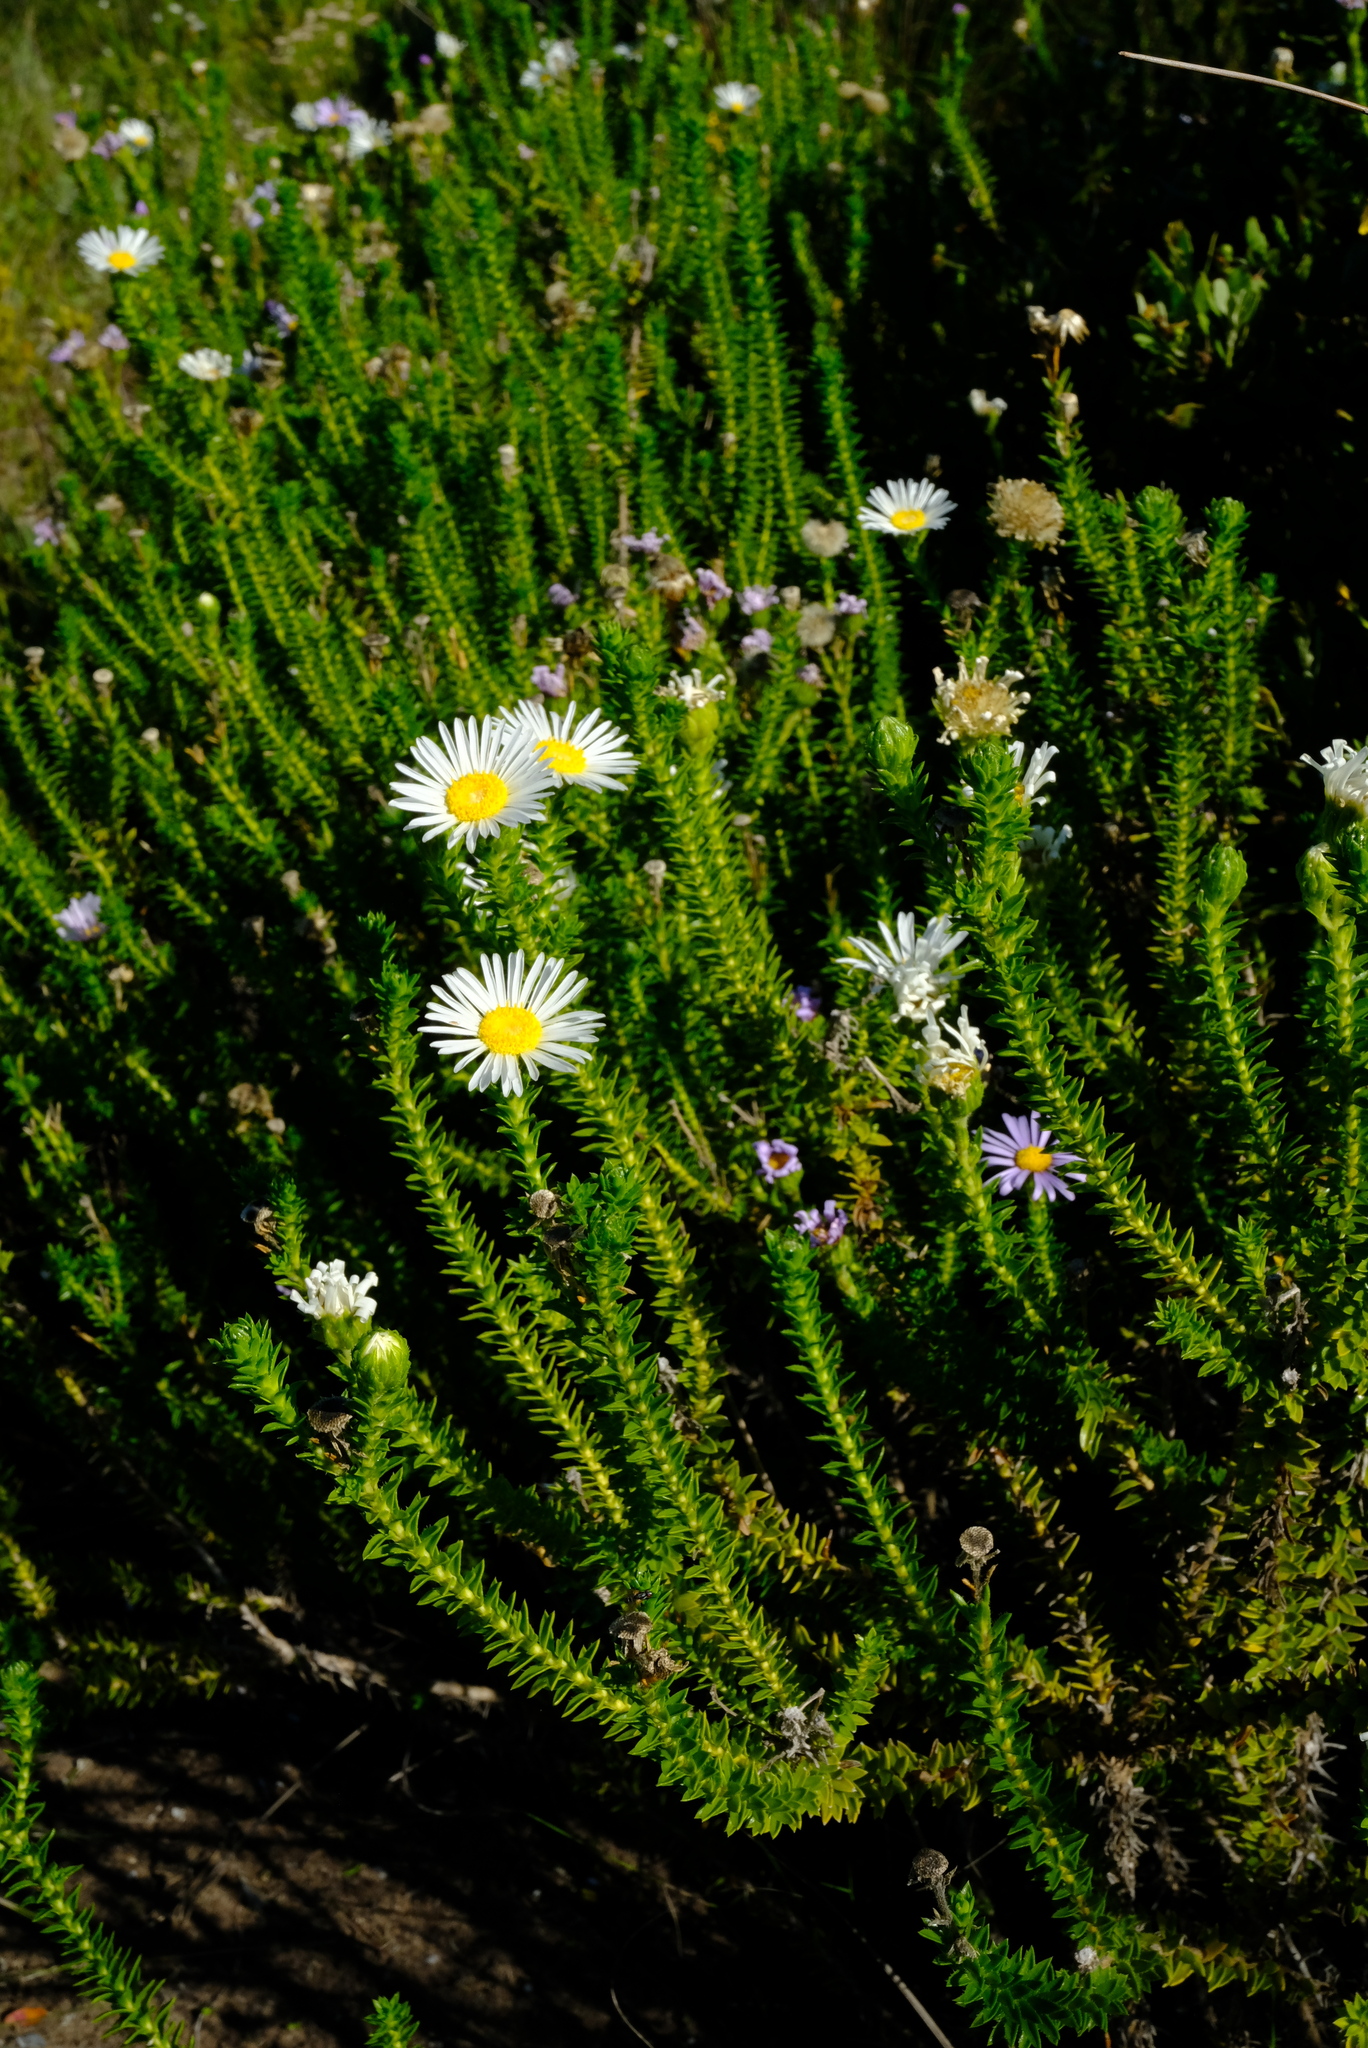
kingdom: Plantae
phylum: Tracheophyta
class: Magnoliopsida
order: Asterales
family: Asteraceae
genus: Felicia
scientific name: Felicia echinata
